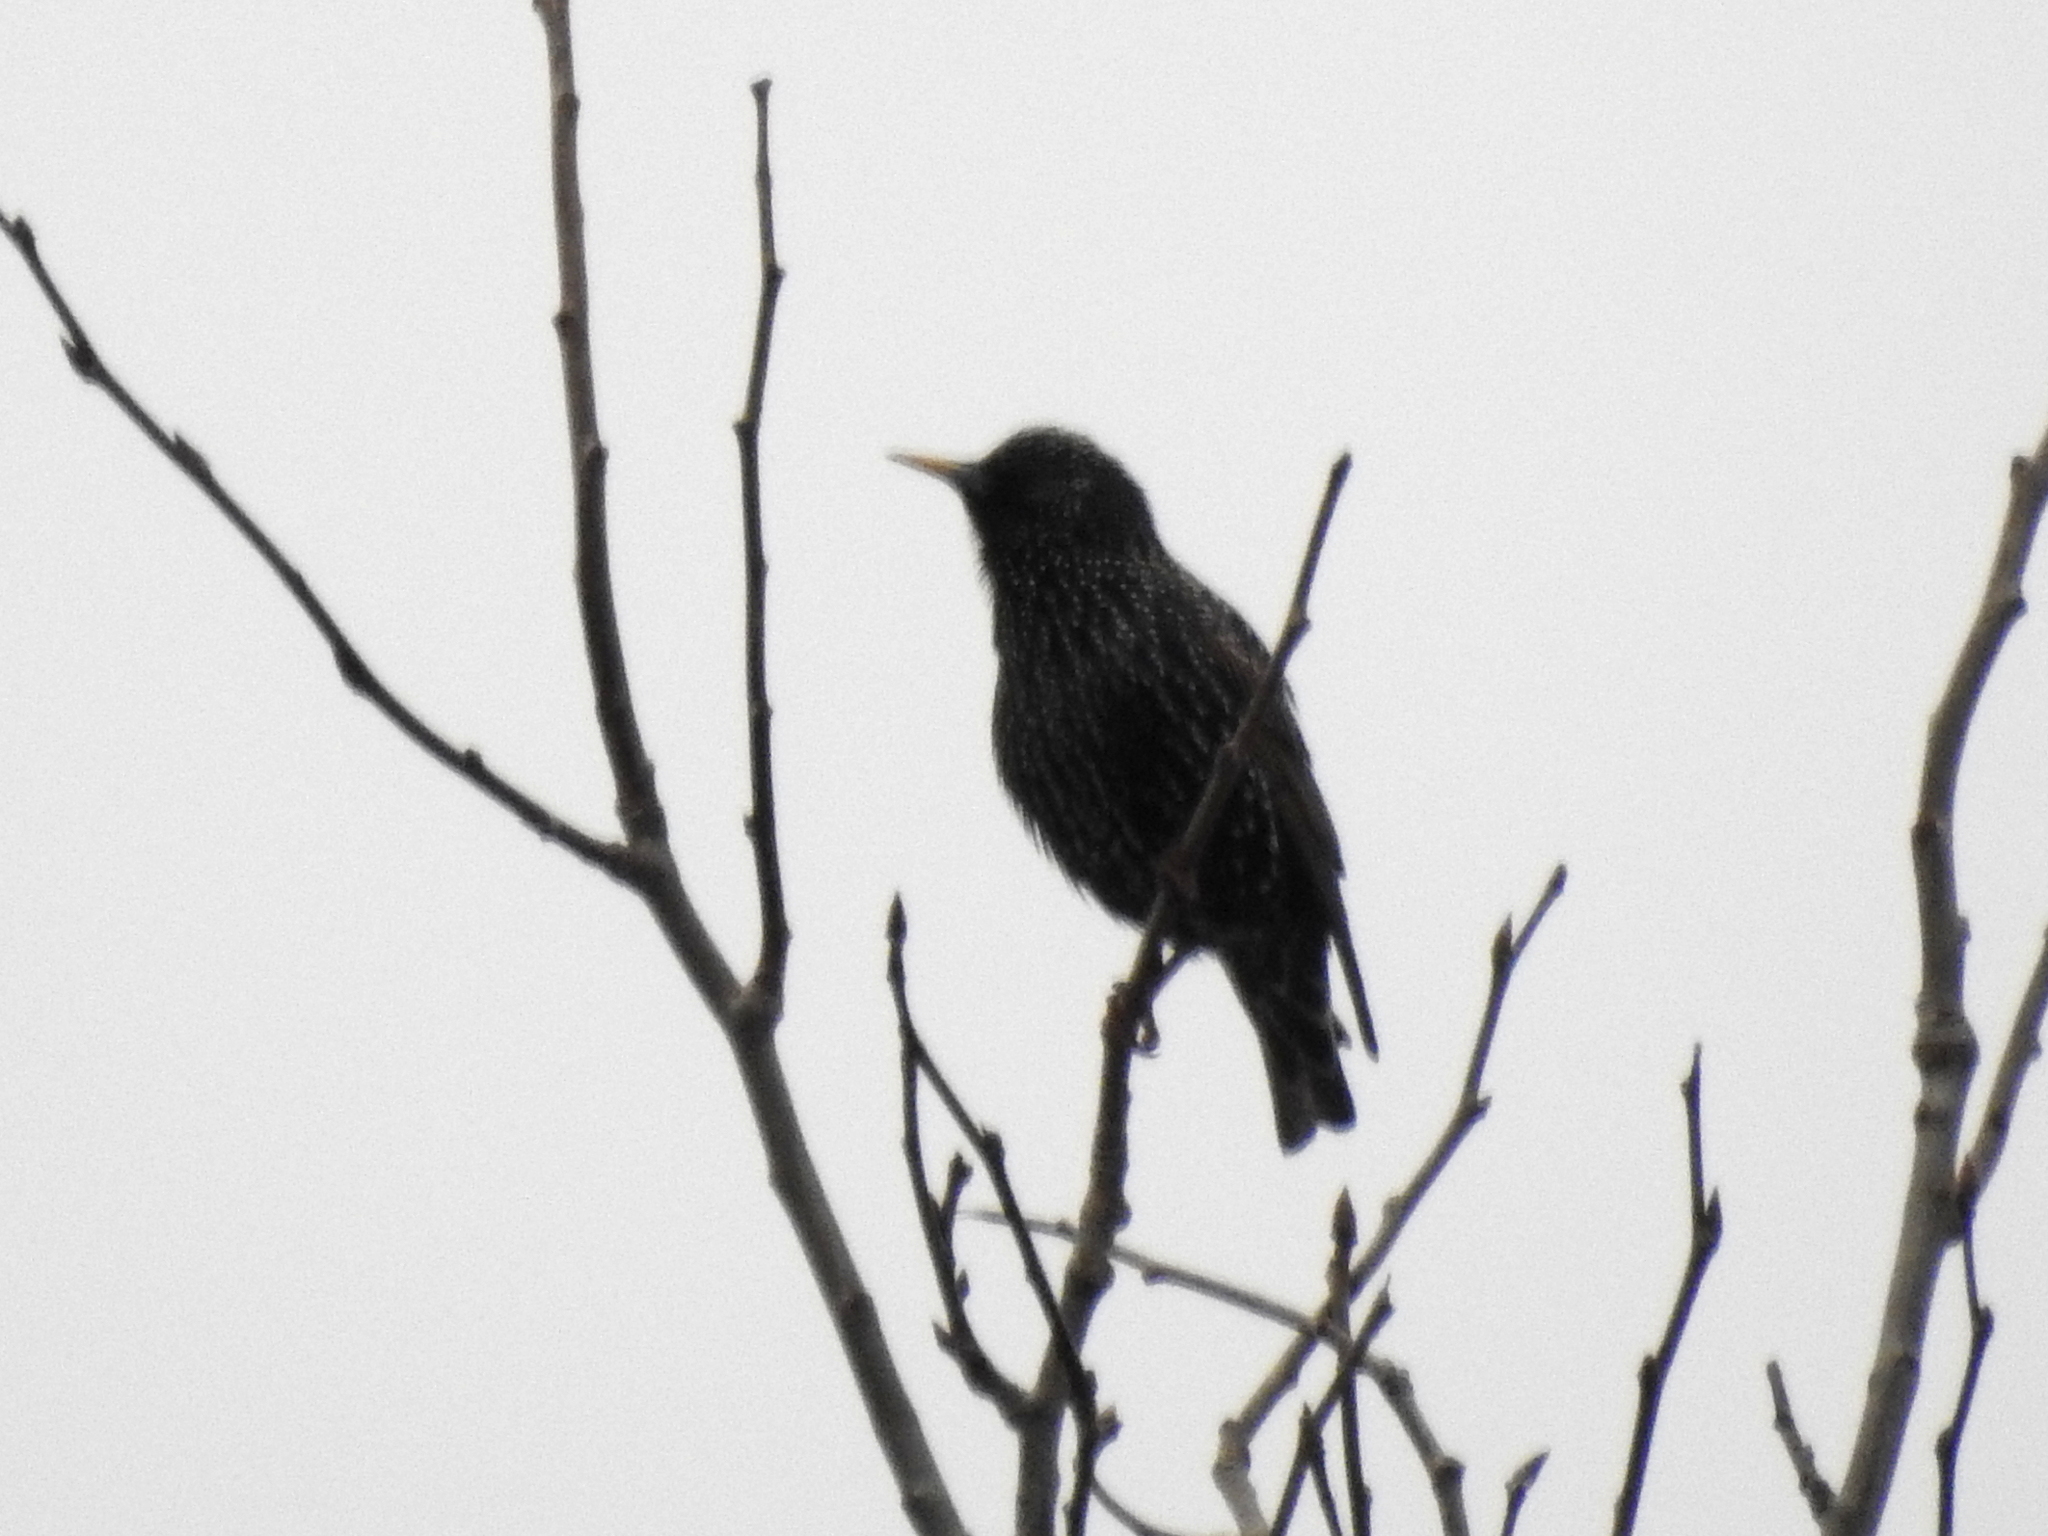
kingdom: Animalia
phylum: Chordata
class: Aves
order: Passeriformes
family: Sturnidae
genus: Sturnus
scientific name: Sturnus vulgaris
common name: Common starling
